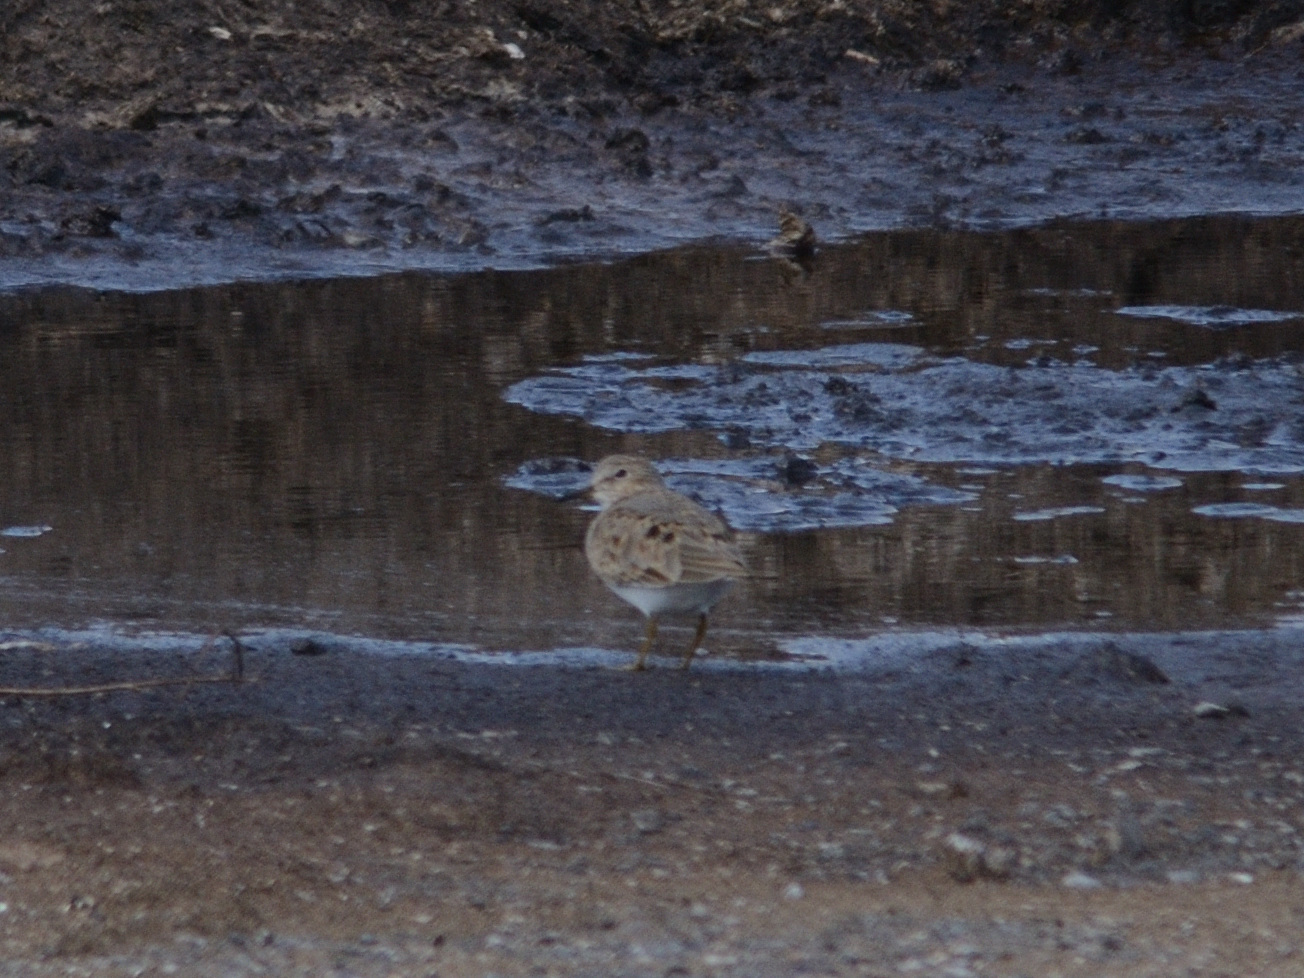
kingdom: Animalia
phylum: Chordata
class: Aves
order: Charadriiformes
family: Scolopacidae
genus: Calidris
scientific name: Calidris temminckii
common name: Temminck's stint
